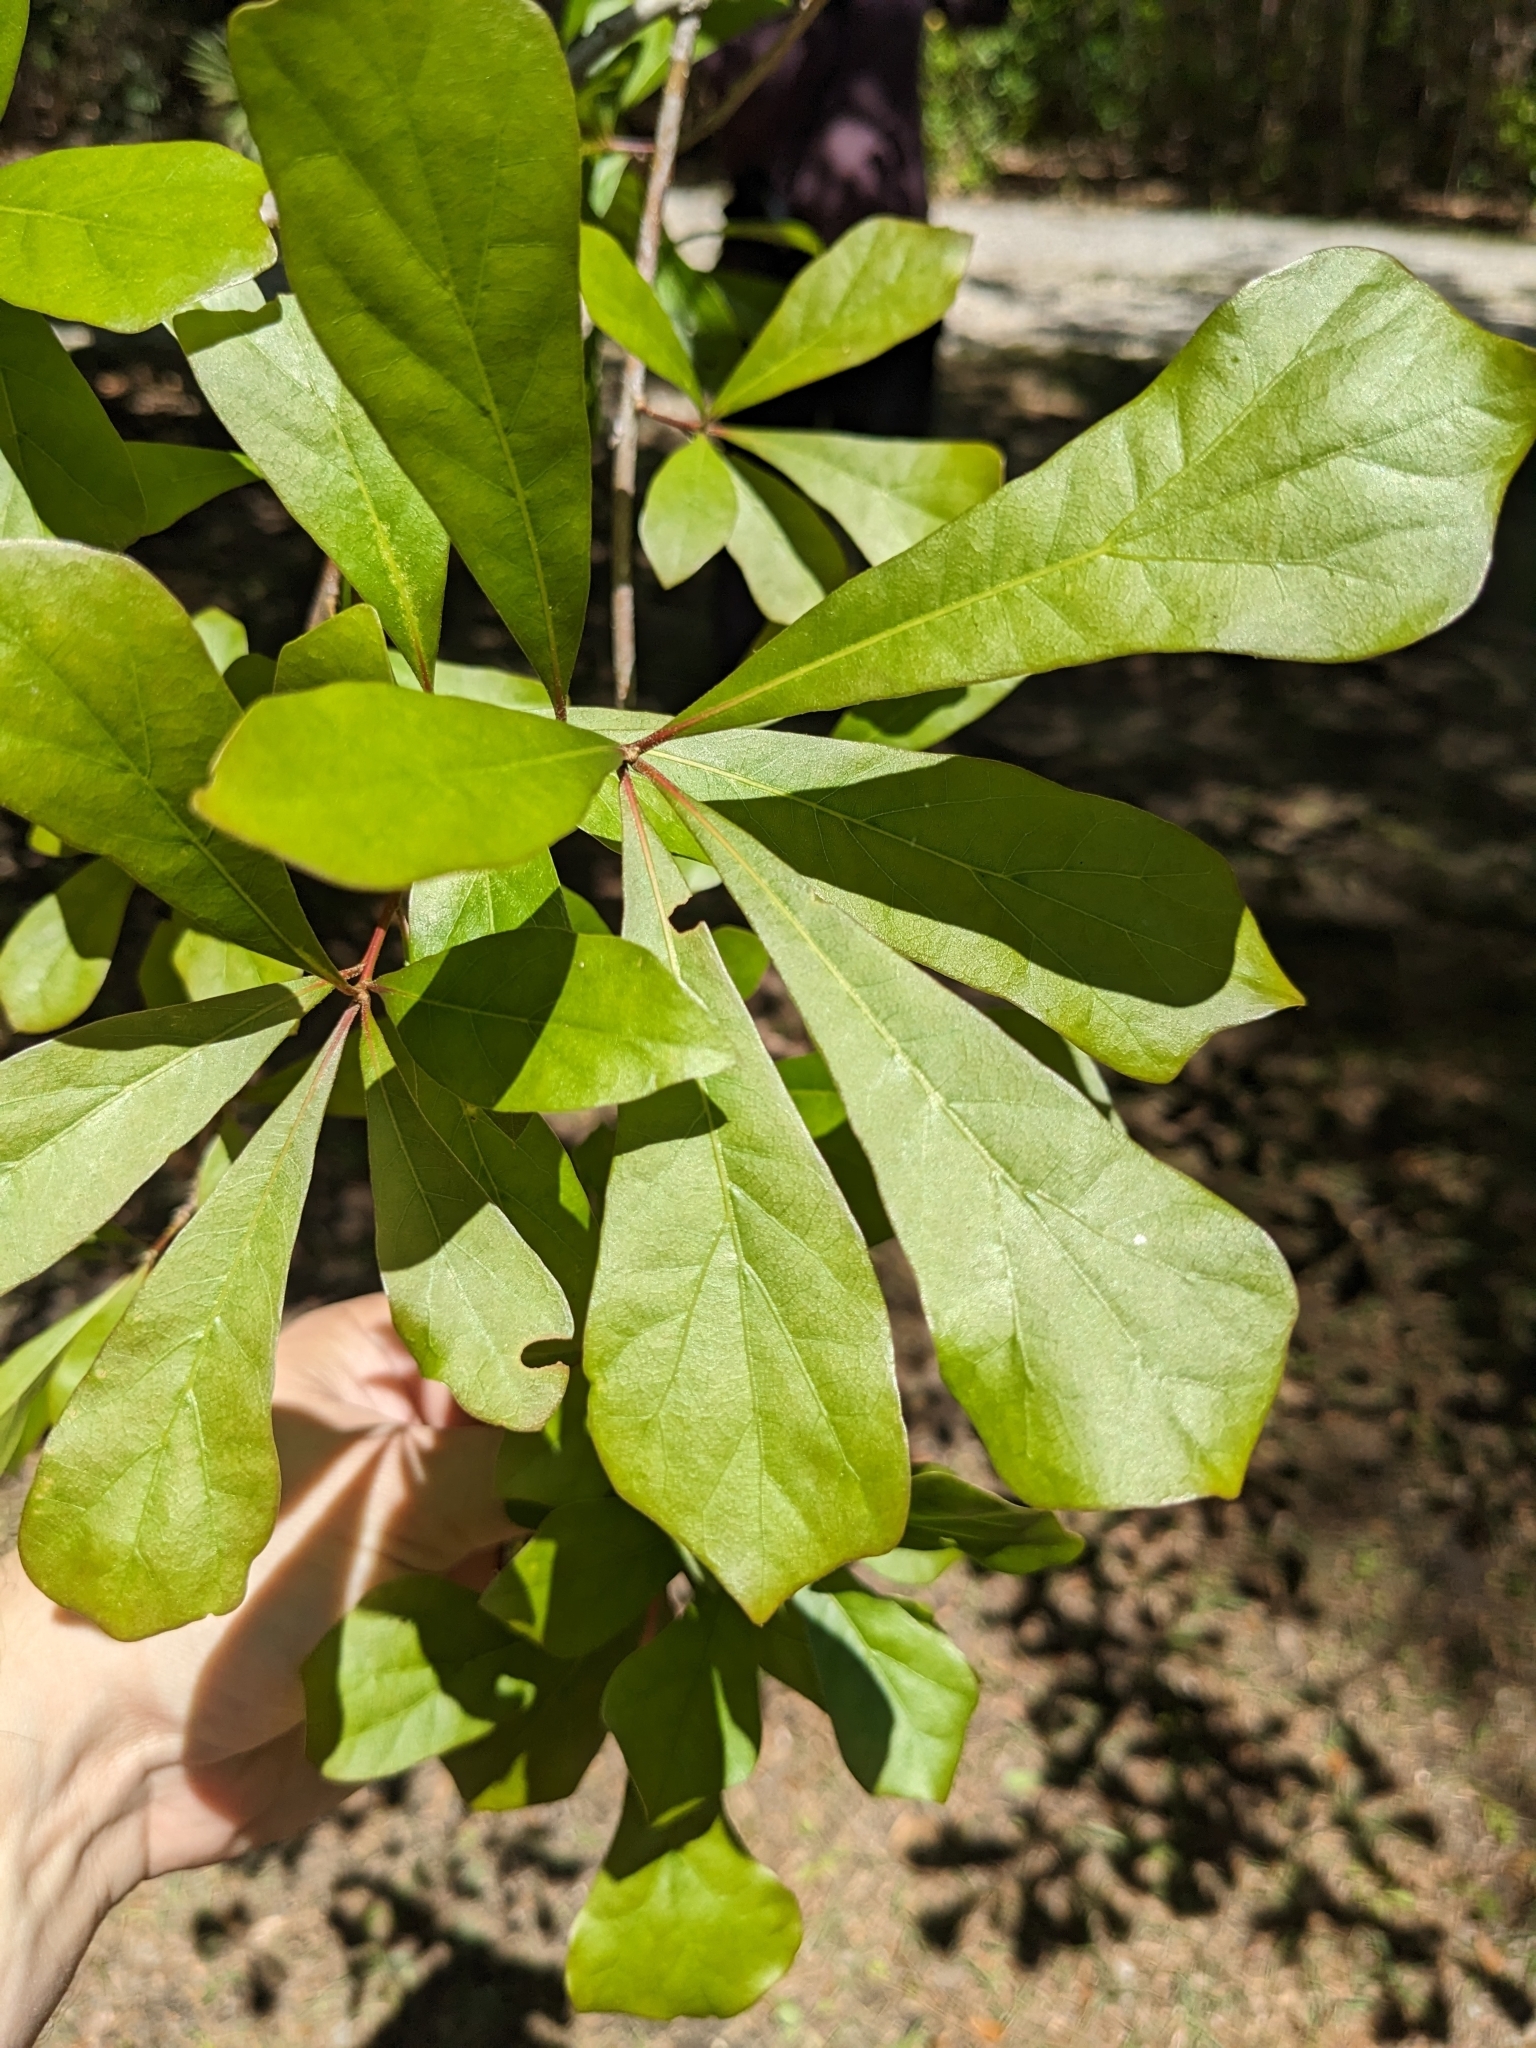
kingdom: Plantae
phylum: Tracheophyta
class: Magnoliopsida
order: Fagales
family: Fagaceae
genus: Quercus
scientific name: Quercus nigra
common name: Water oak
